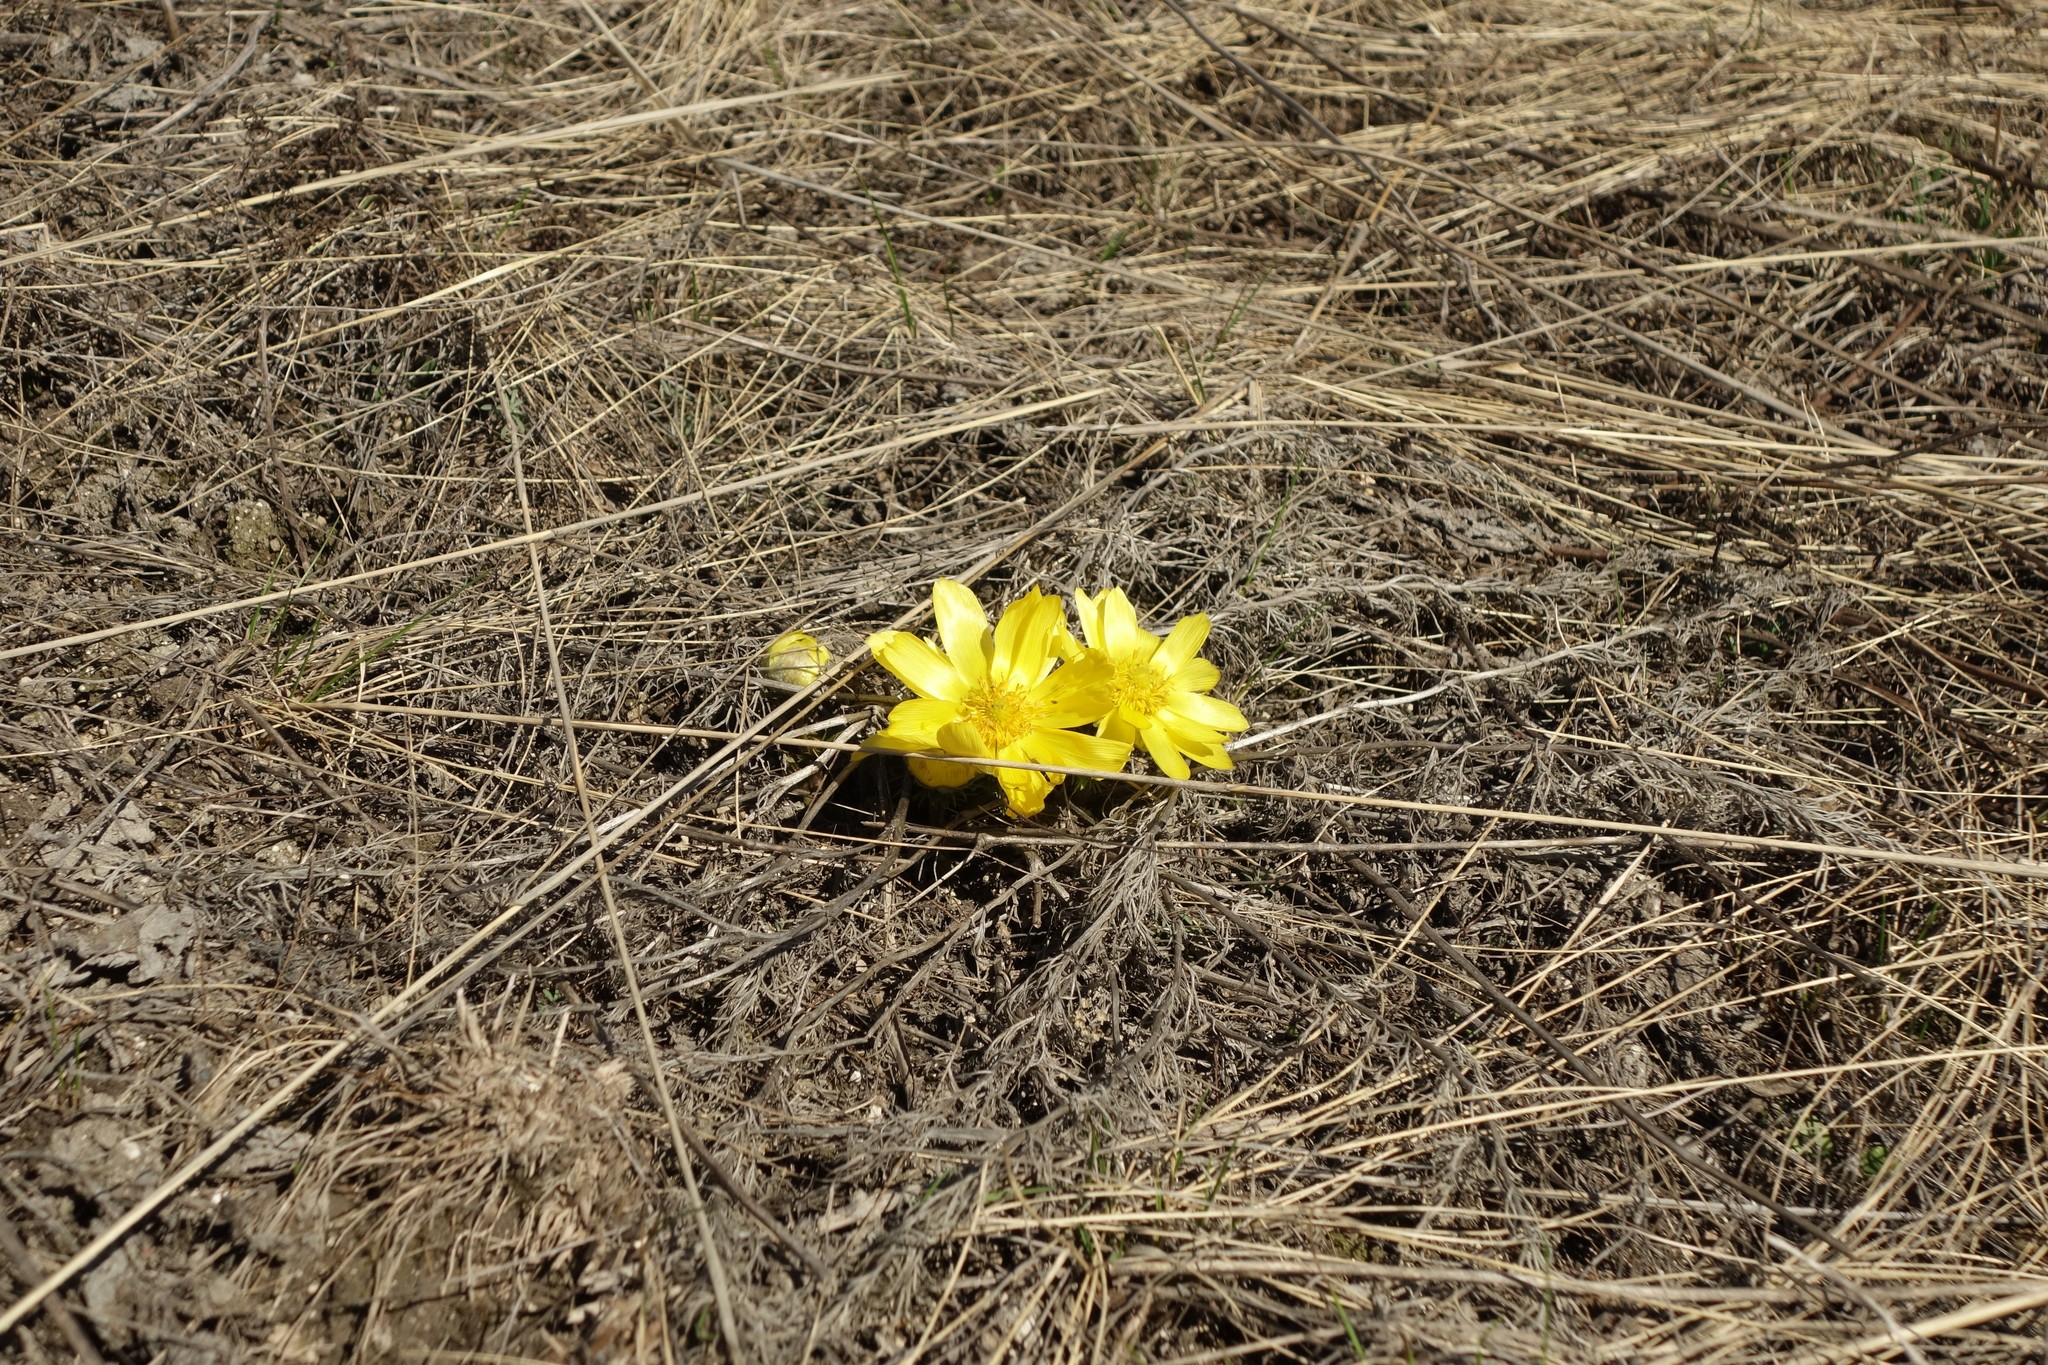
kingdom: Plantae
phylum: Tracheophyta
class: Magnoliopsida
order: Ranunculales
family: Ranunculaceae
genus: Adonis
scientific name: Adonis vernalis
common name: Yellow pheasants-eye
